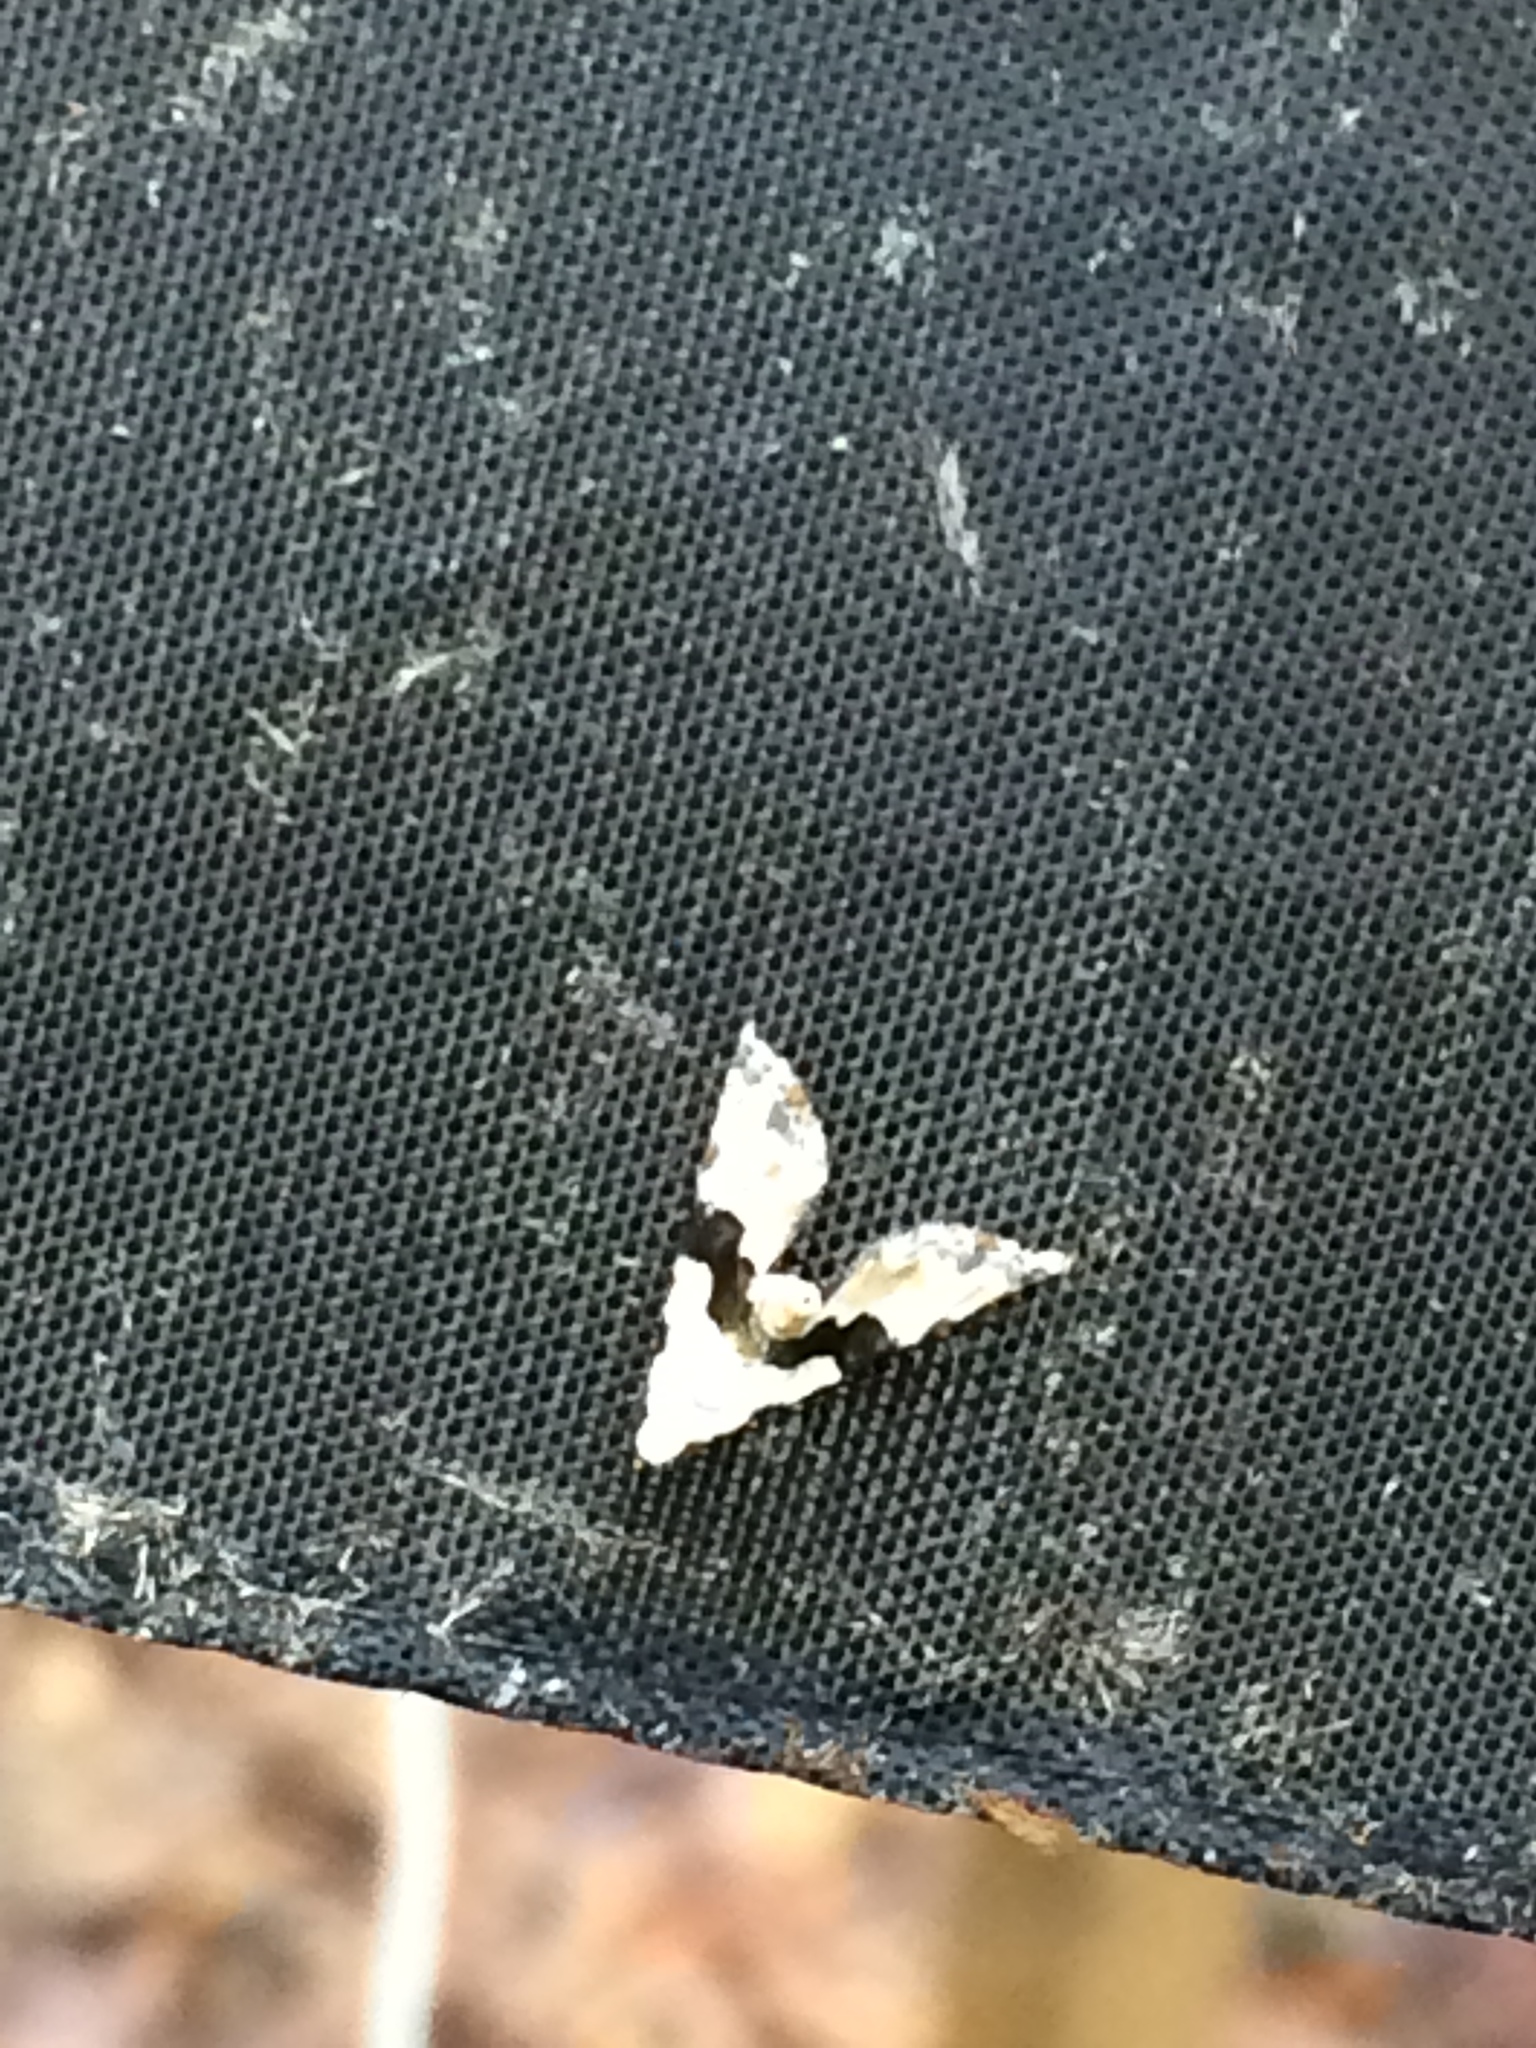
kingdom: Animalia
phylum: Arthropoda
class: Insecta
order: Lepidoptera
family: Noctuidae
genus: Nigetia
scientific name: Nigetia formosalis
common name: Thin-winged owlet
